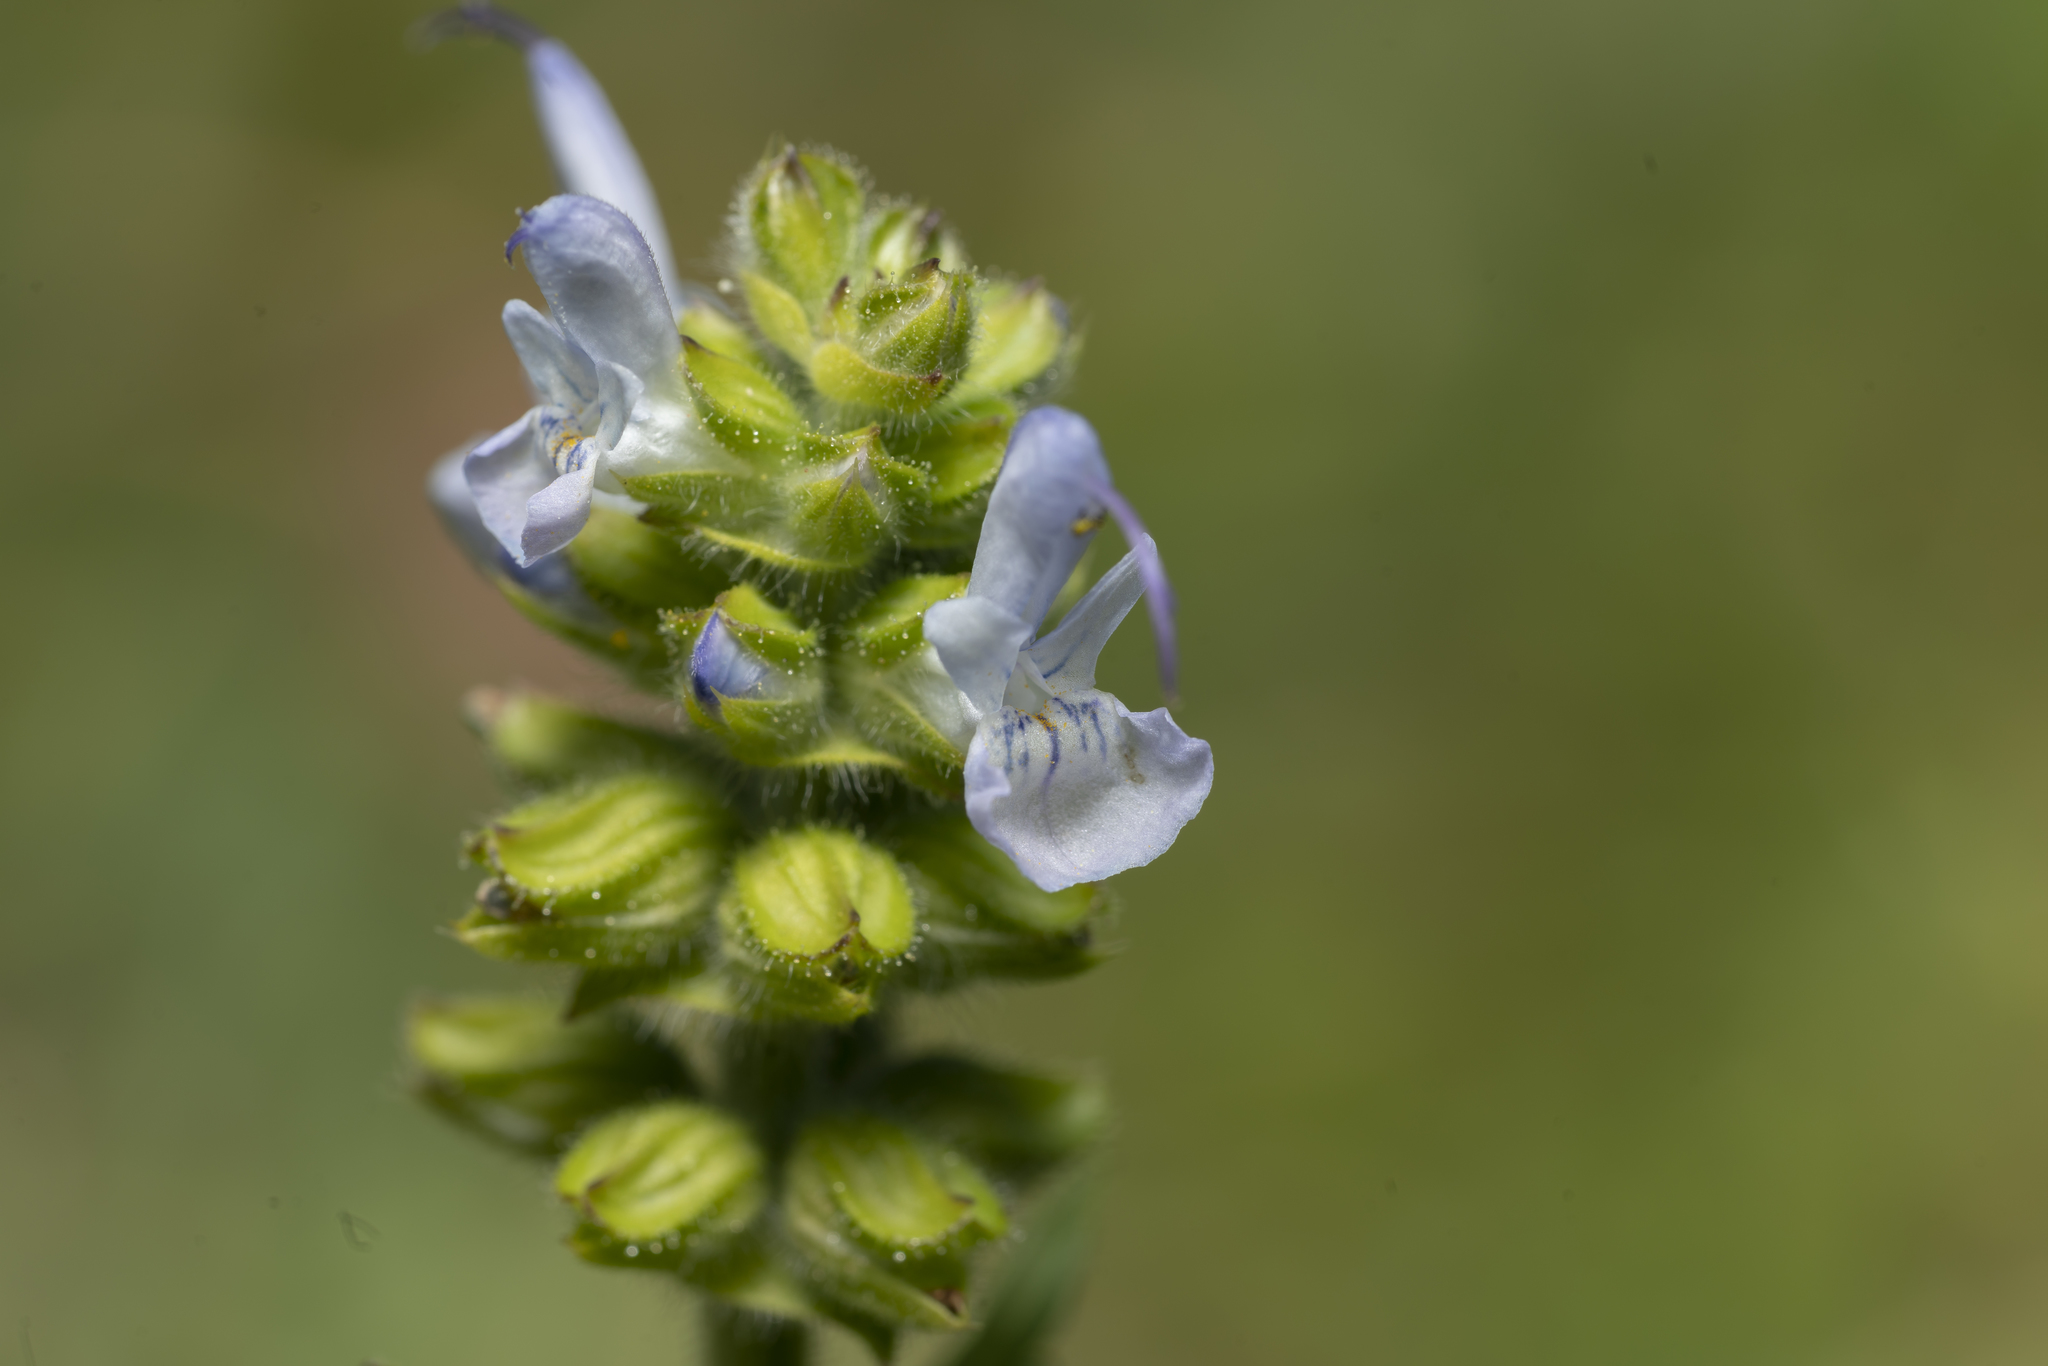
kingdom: Plantae
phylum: Tracheophyta
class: Magnoliopsida
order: Lamiales
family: Lamiaceae
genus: Salvia
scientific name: Salvia clandestina
